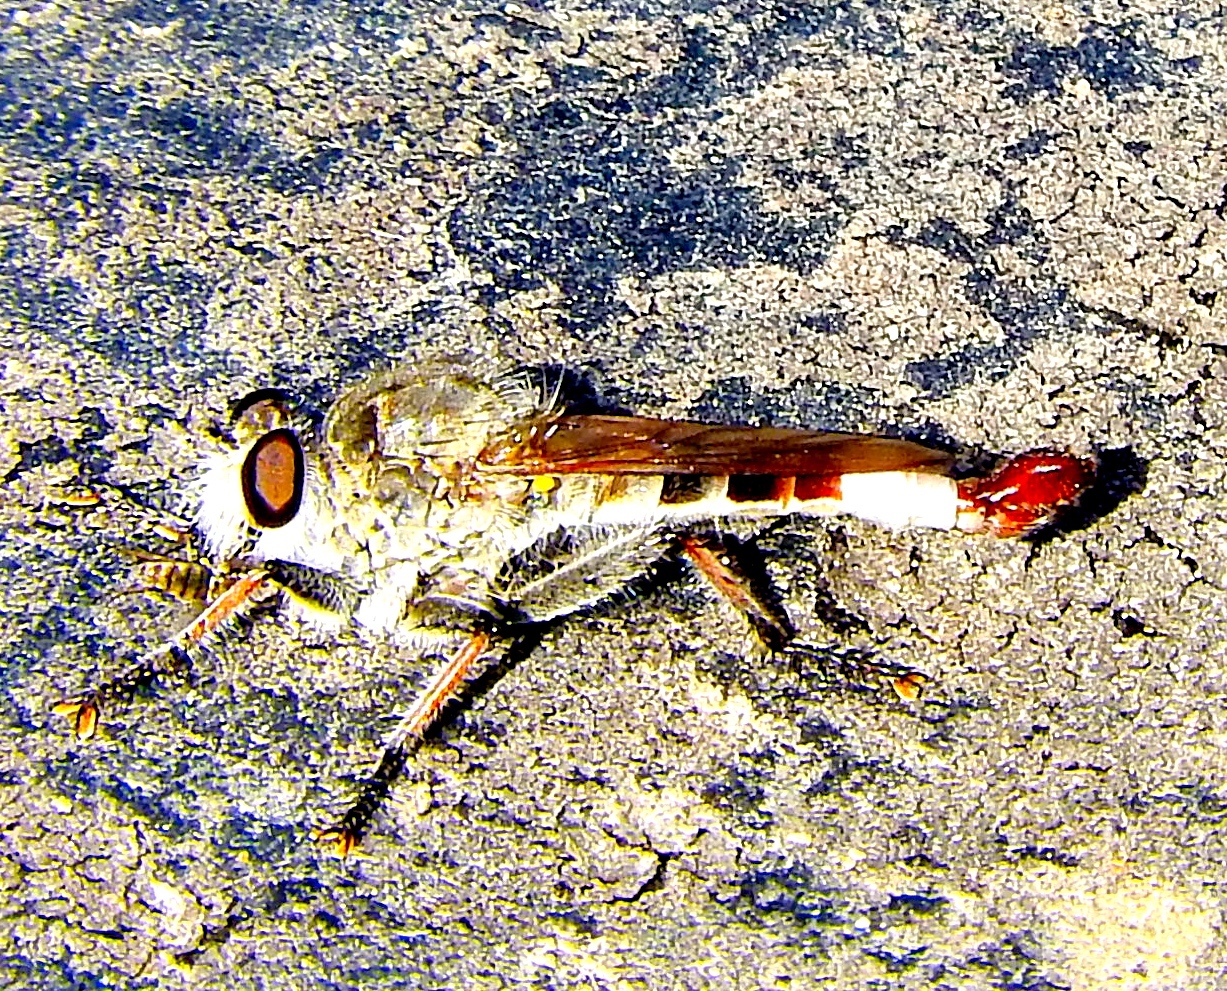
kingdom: Animalia
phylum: Arthropoda
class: Insecta
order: Diptera
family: Asilidae
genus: Efferia
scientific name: Efferia
